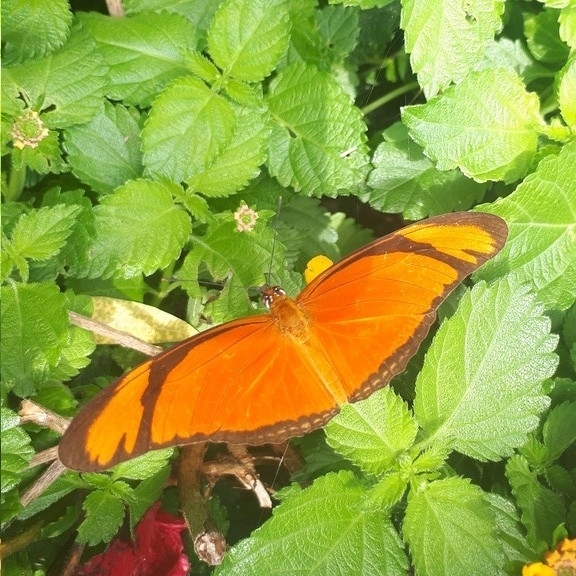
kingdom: Animalia
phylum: Arthropoda
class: Insecta
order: Lepidoptera
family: Nymphalidae
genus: Dryas
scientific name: Dryas iulia
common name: Flambeau
